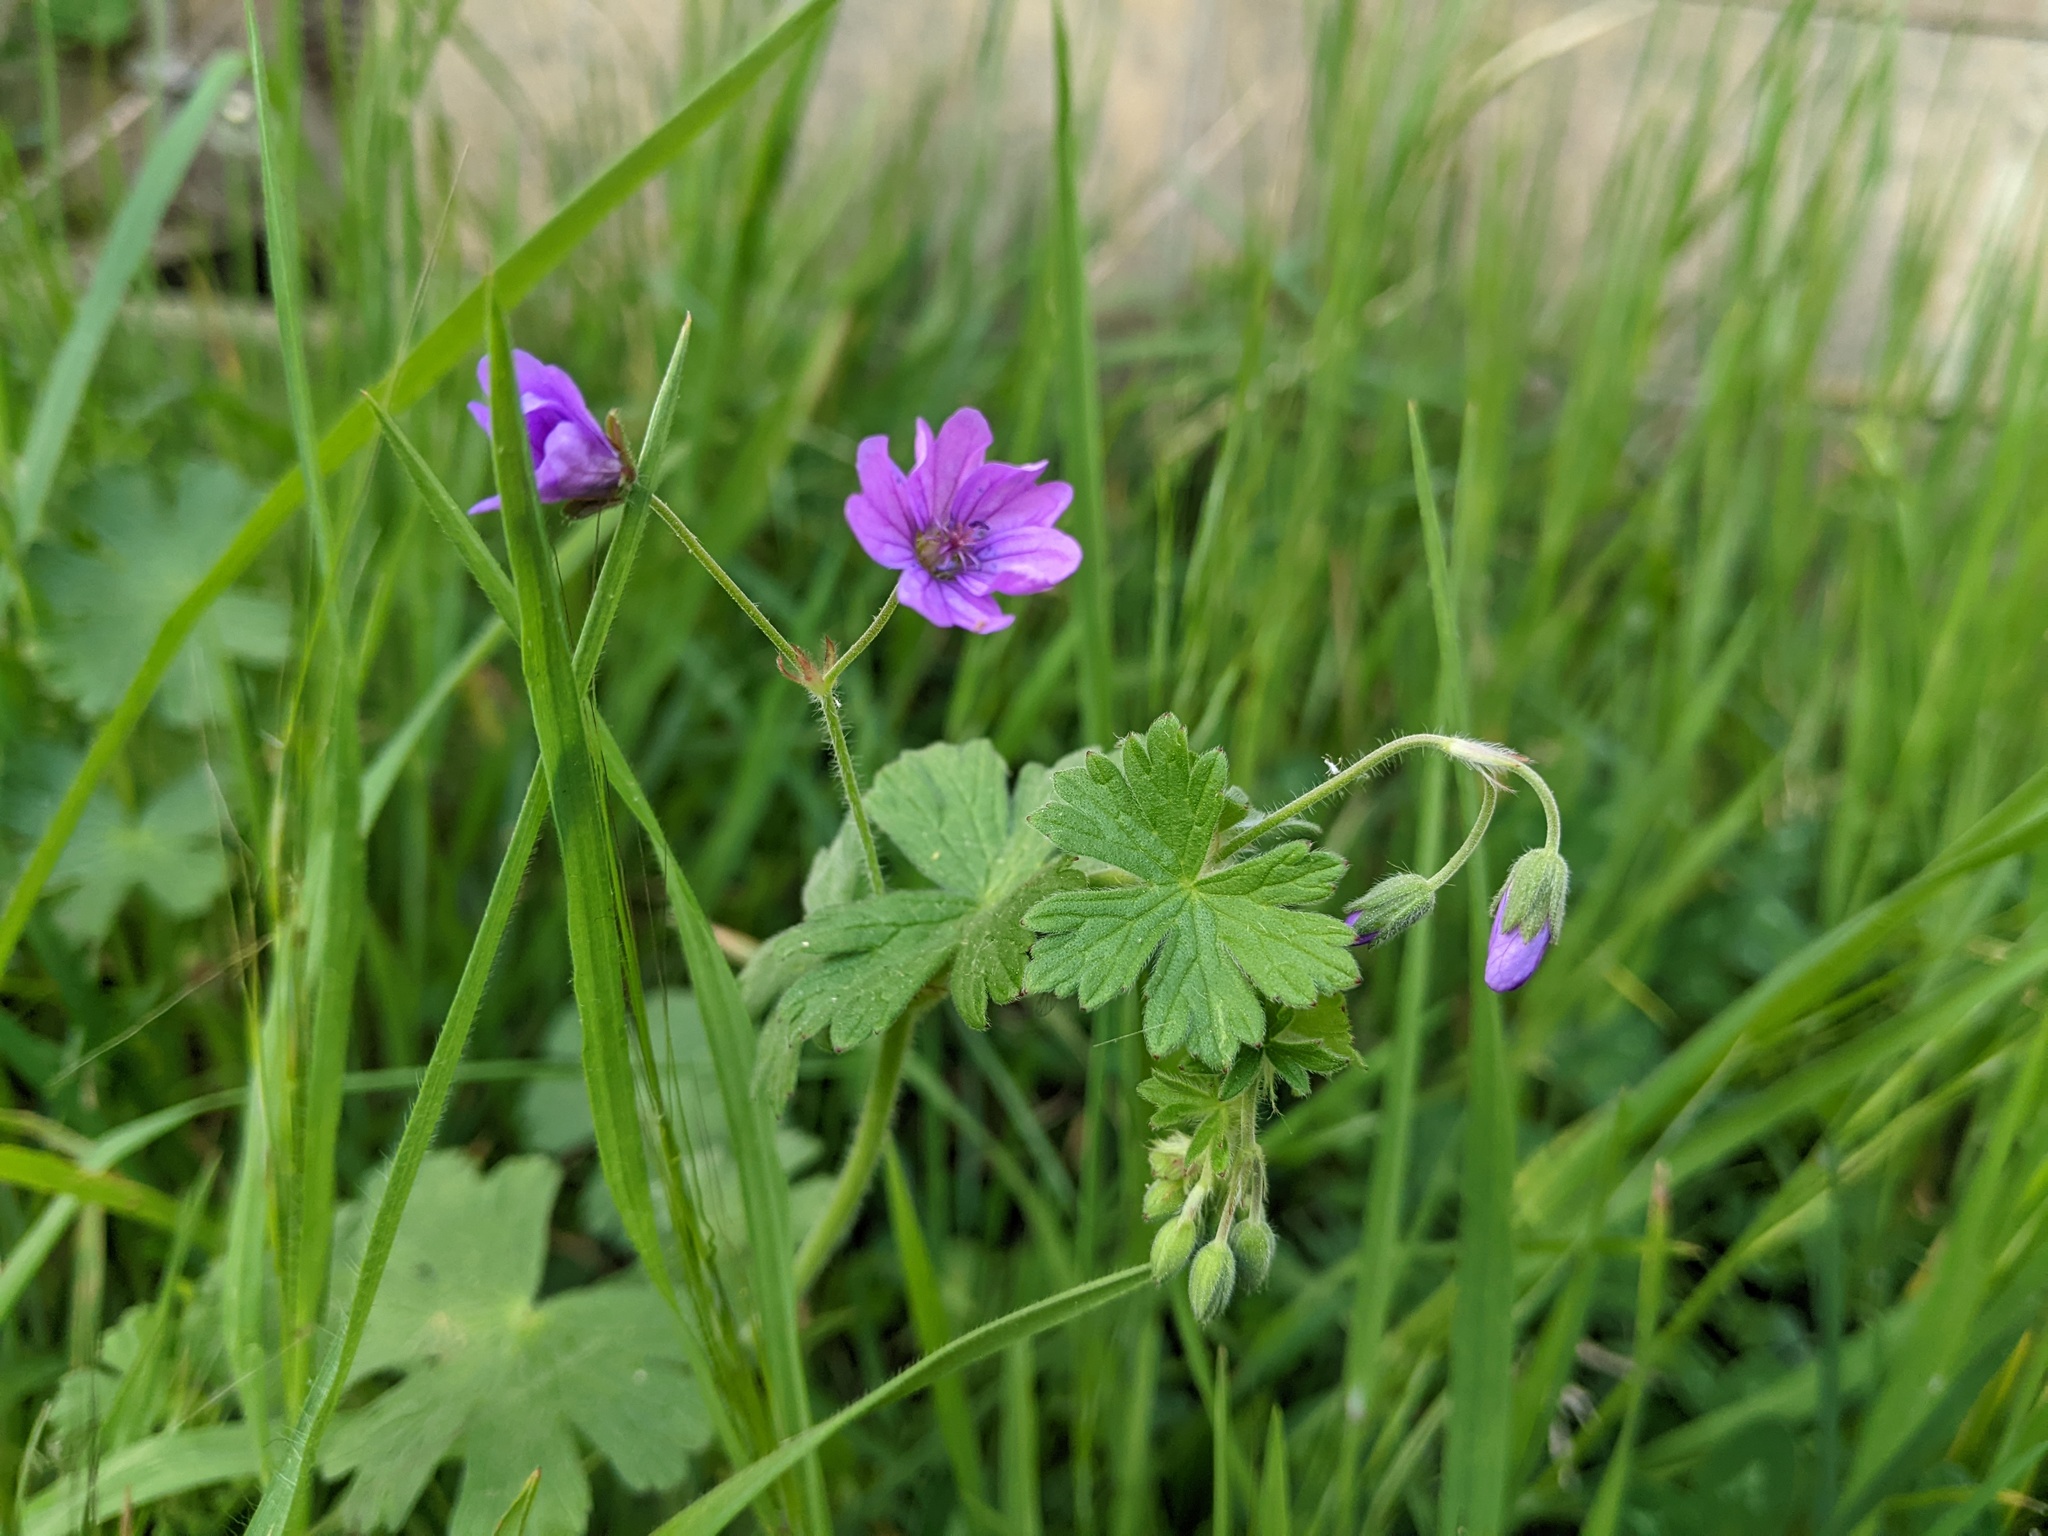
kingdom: Plantae
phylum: Tracheophyta
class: Magnoliopsida
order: Geraniales
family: Geraniaceae
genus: Geranium
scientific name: Geranium pyrenaicum
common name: Hedgerow crane's-bill
